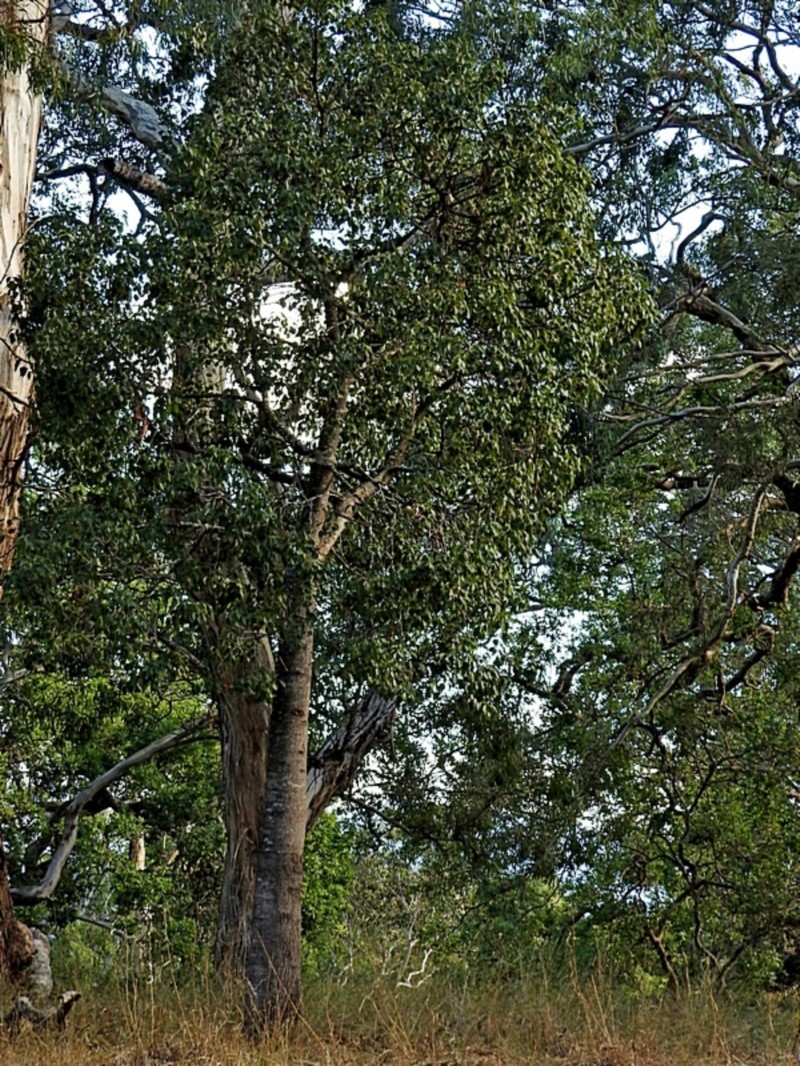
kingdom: Plantae
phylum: Tracheophyta
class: Magnoliopsida
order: Malvales
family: Malvaceae
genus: Brachychiton
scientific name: Brachychiton populneus
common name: Kurrajong
